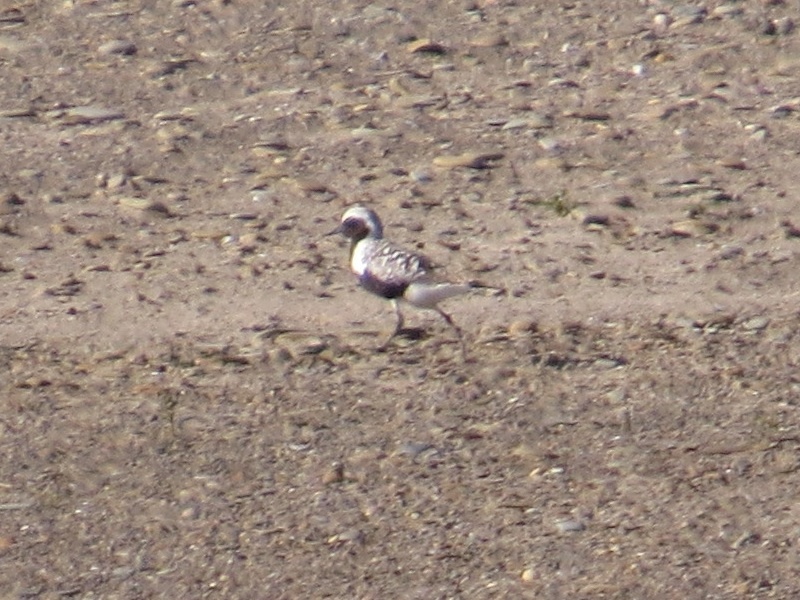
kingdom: Animalia
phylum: Chordata
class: Aves
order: Charadriiformes
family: Charadriidae
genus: Pluvialis
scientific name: Pluvialis squatarola
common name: Grey plover
